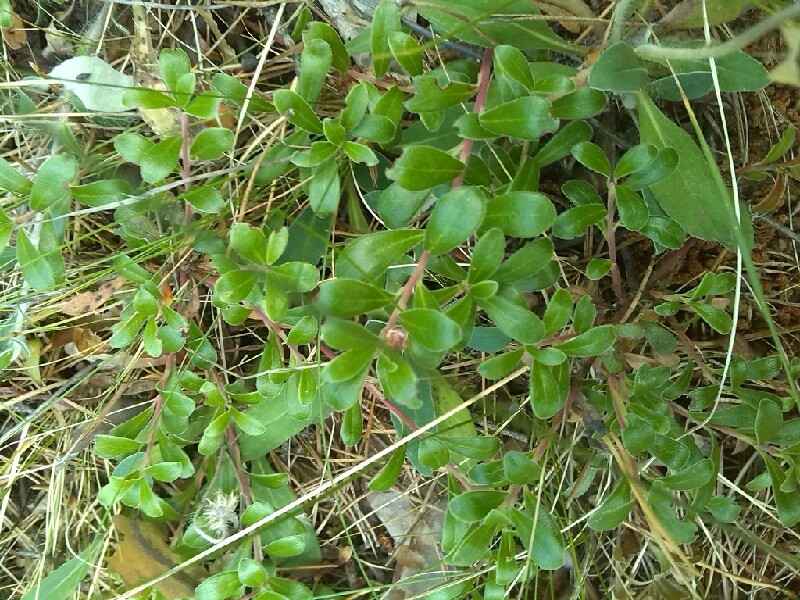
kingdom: Plantae
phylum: Tracheophyta
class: Magnoliopsida
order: Ericales
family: Ericaceae
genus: Arctostaphylos
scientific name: Arctostaphylos uva-ursi
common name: Bearberry
